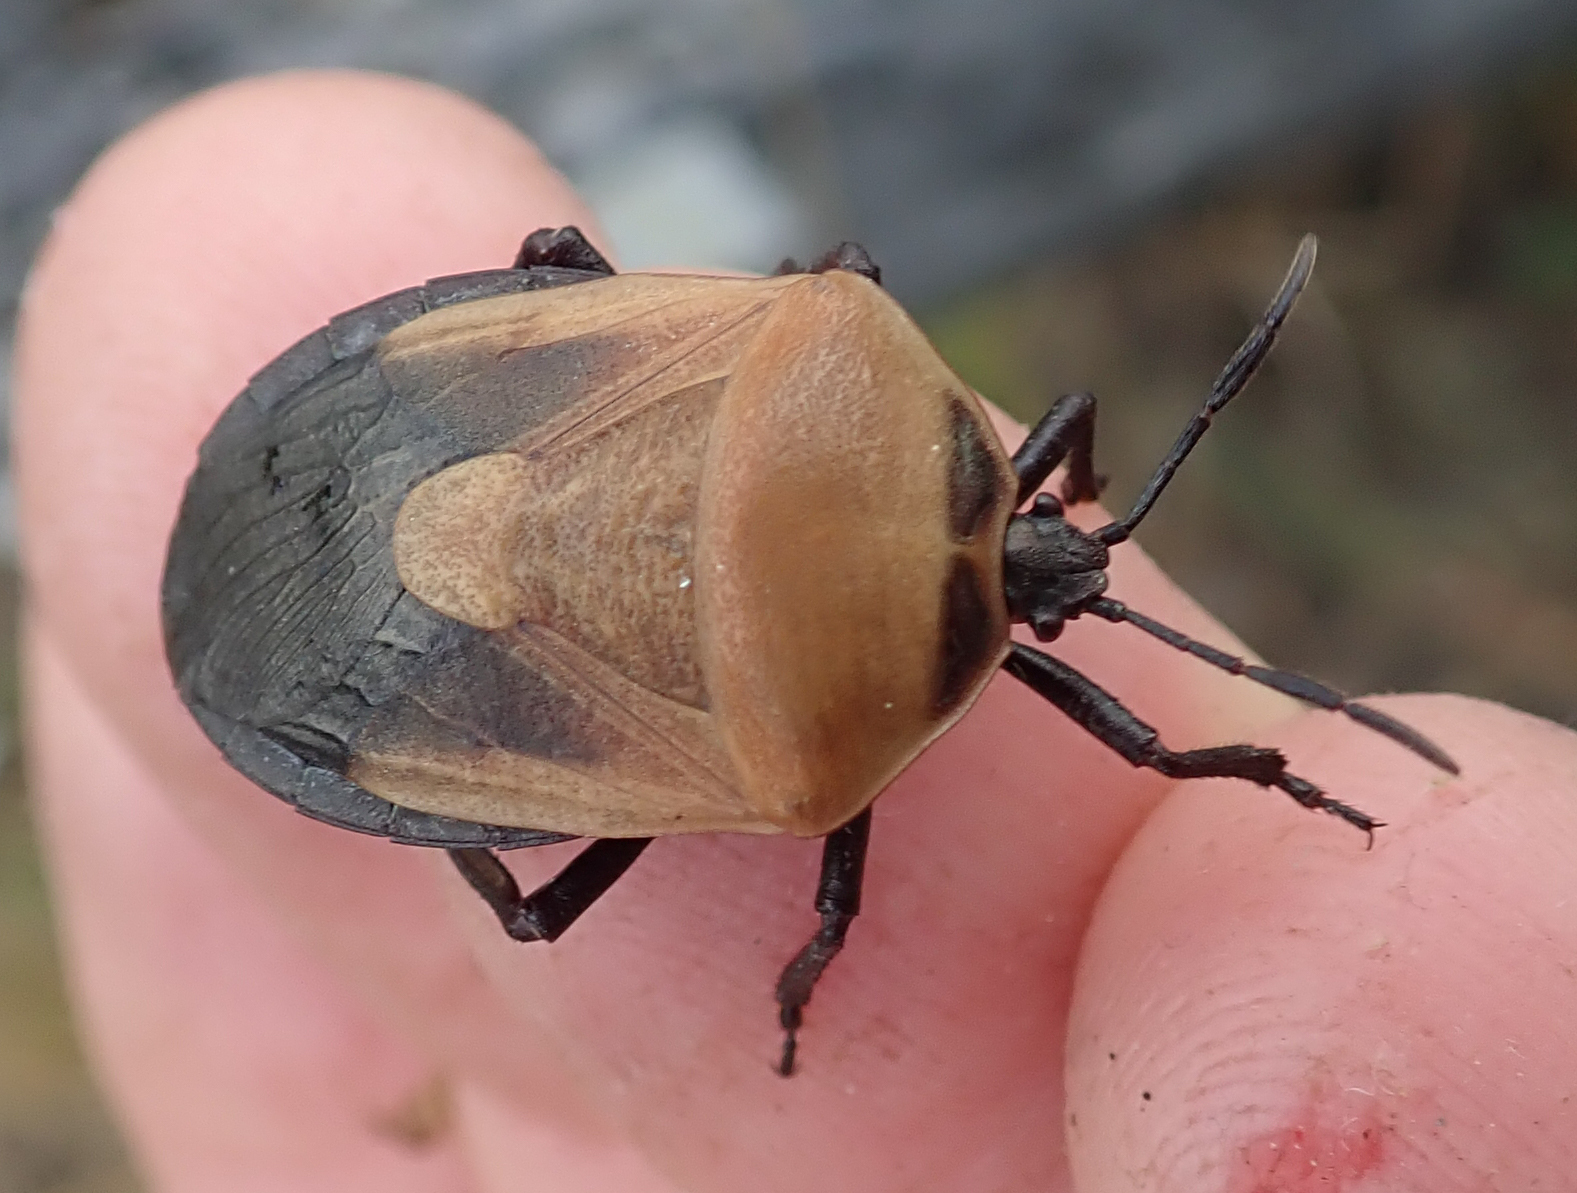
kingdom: Animalia
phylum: Arthropoda
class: Insecta
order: Hemiptera
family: Dinidoridae
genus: Coridius
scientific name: Coridius viduatus
